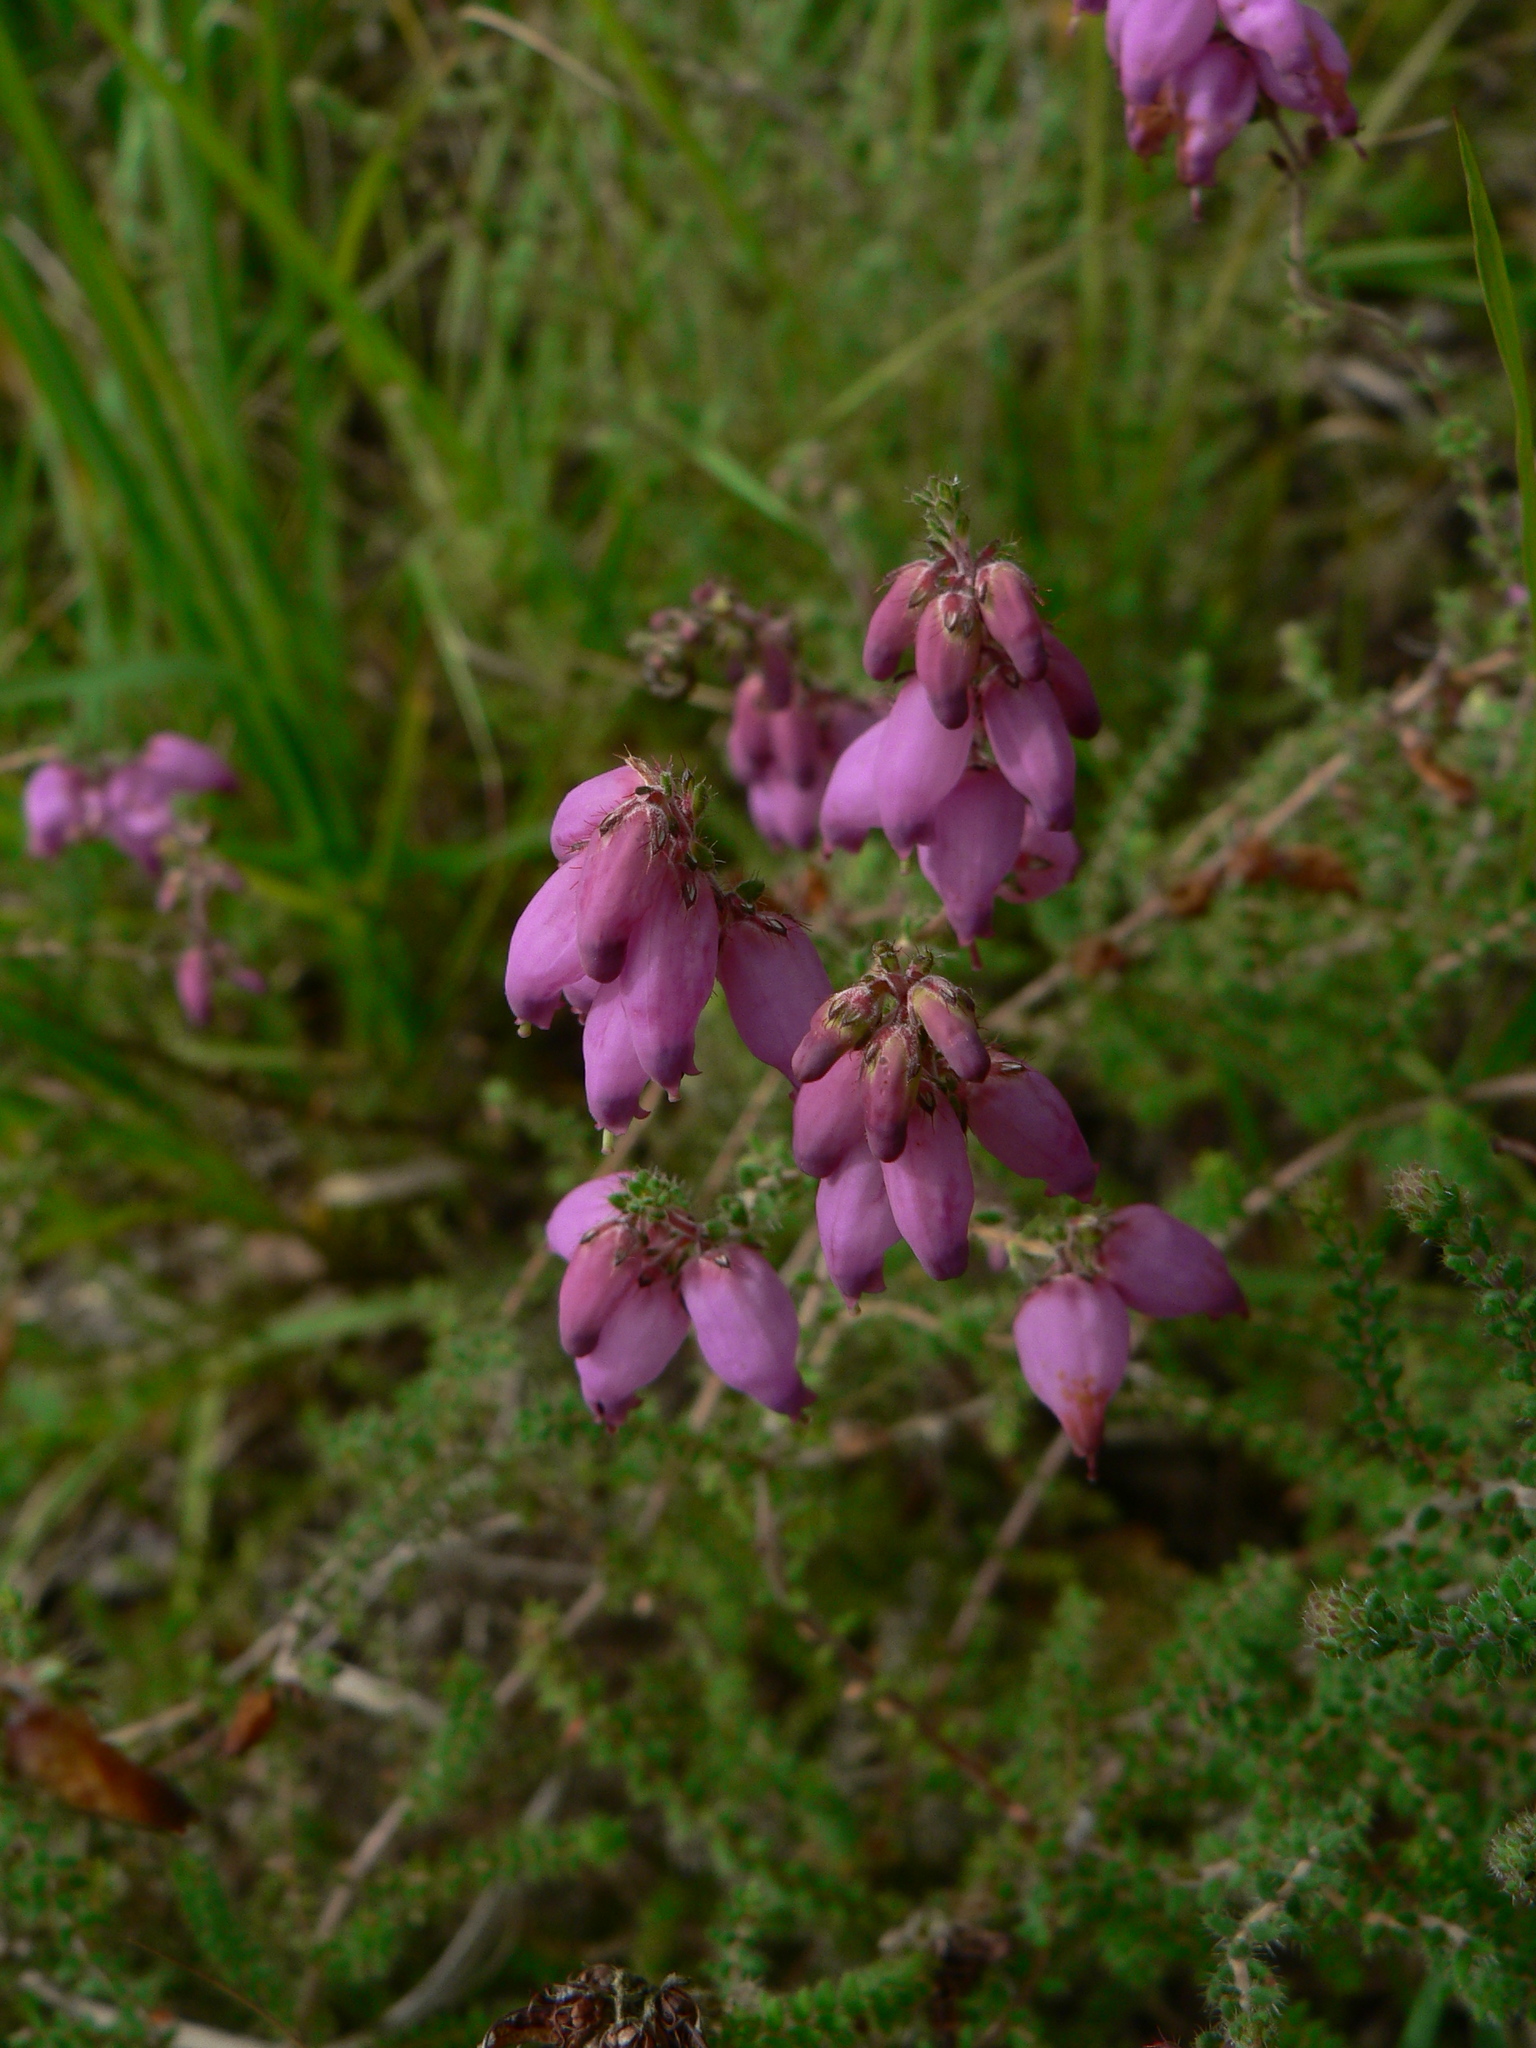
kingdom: Plantae
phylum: Tracheophyta
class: Magnoliopsida
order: Ericales
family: Ericaceae
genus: Erica
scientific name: Erica ciliaris
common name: Dorset heath
